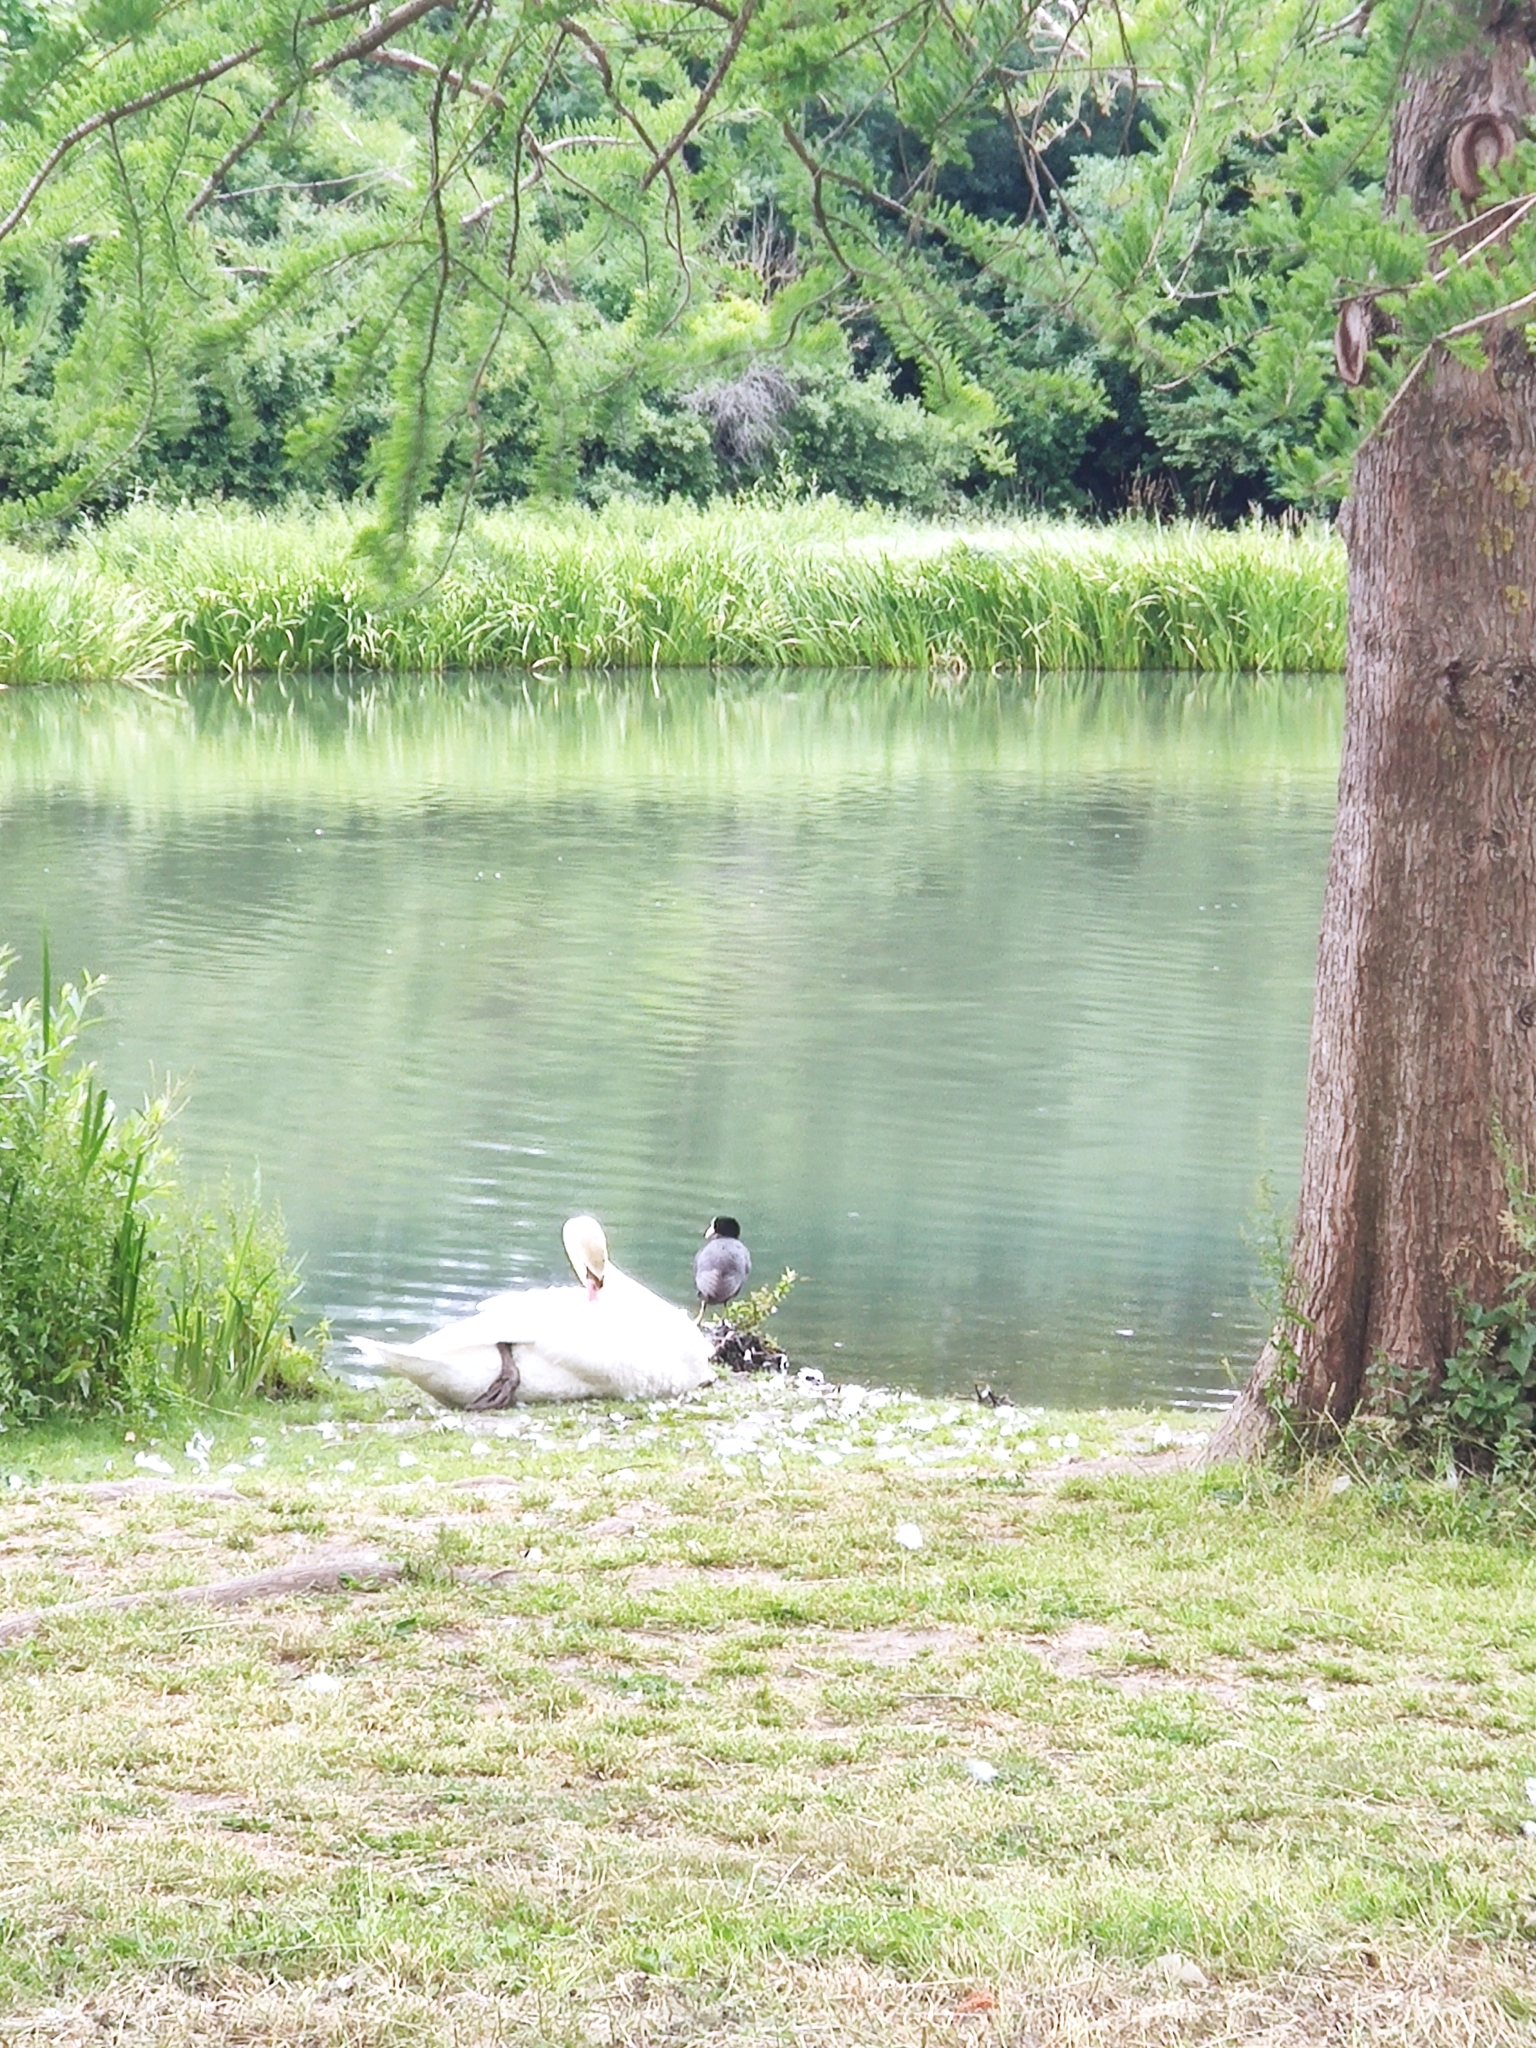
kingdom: Animalia
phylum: Chordata
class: Aves
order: Anseriformes
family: Anatidae
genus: Cygnus
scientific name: Cygnus olor
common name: Mute swan
